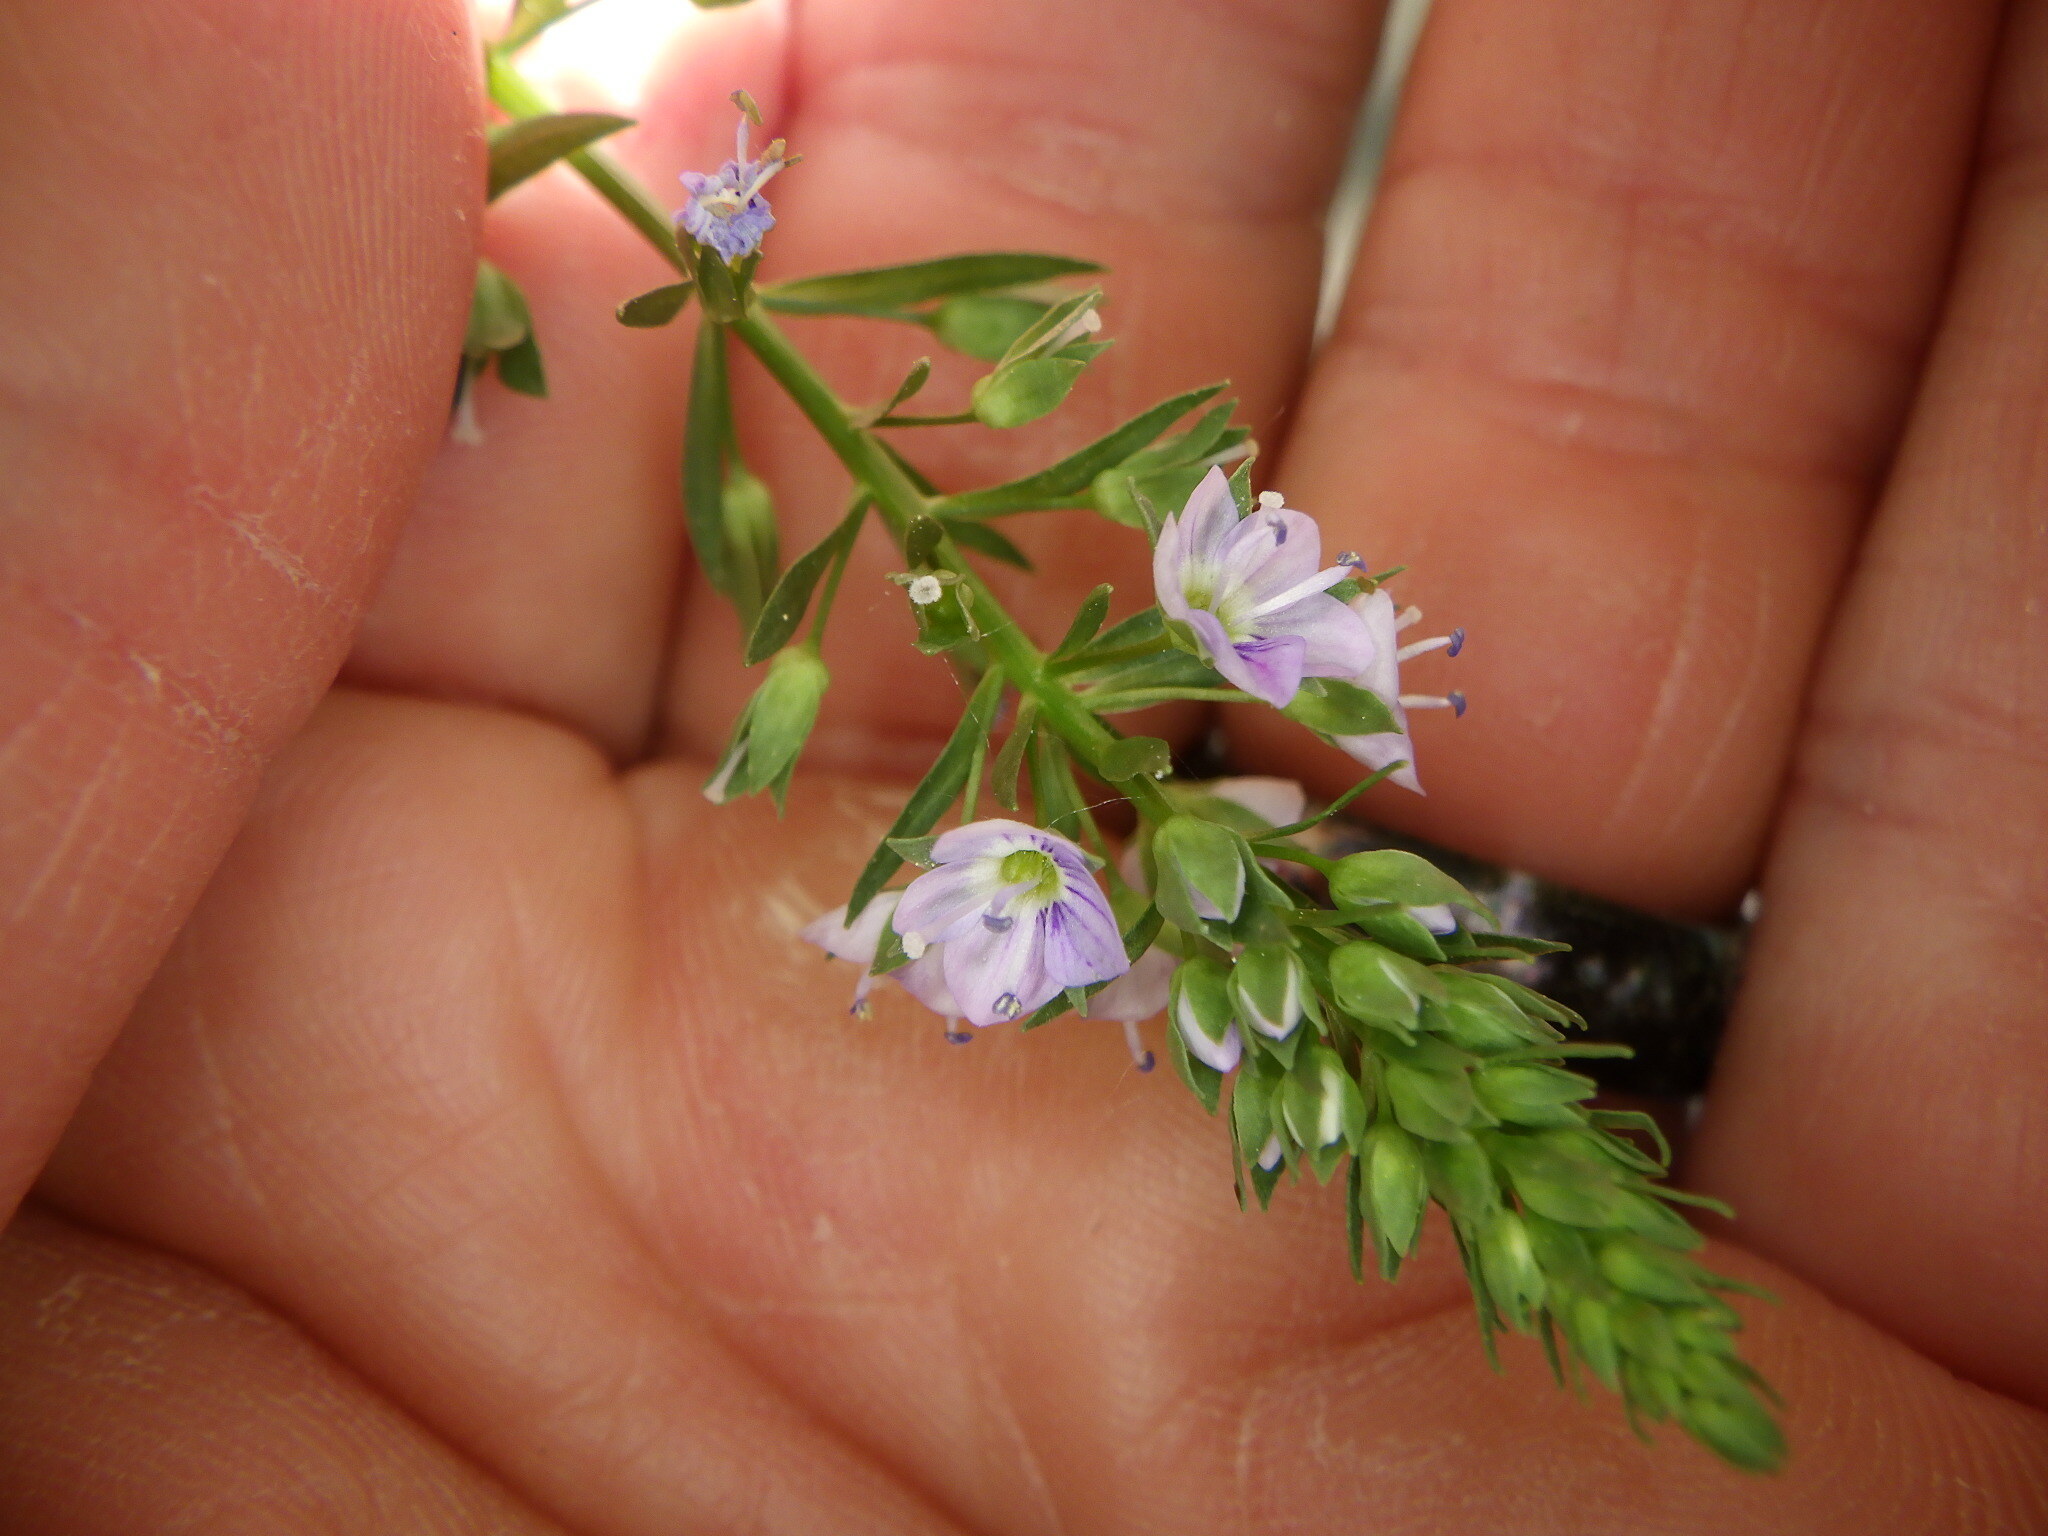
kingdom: Plantae
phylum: Tracheophyta
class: Magnoliopsida
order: Lamiales
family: Plantaginaceae
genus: Veronica
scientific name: Veronica anagallis-aquatica
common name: Water speedwell
